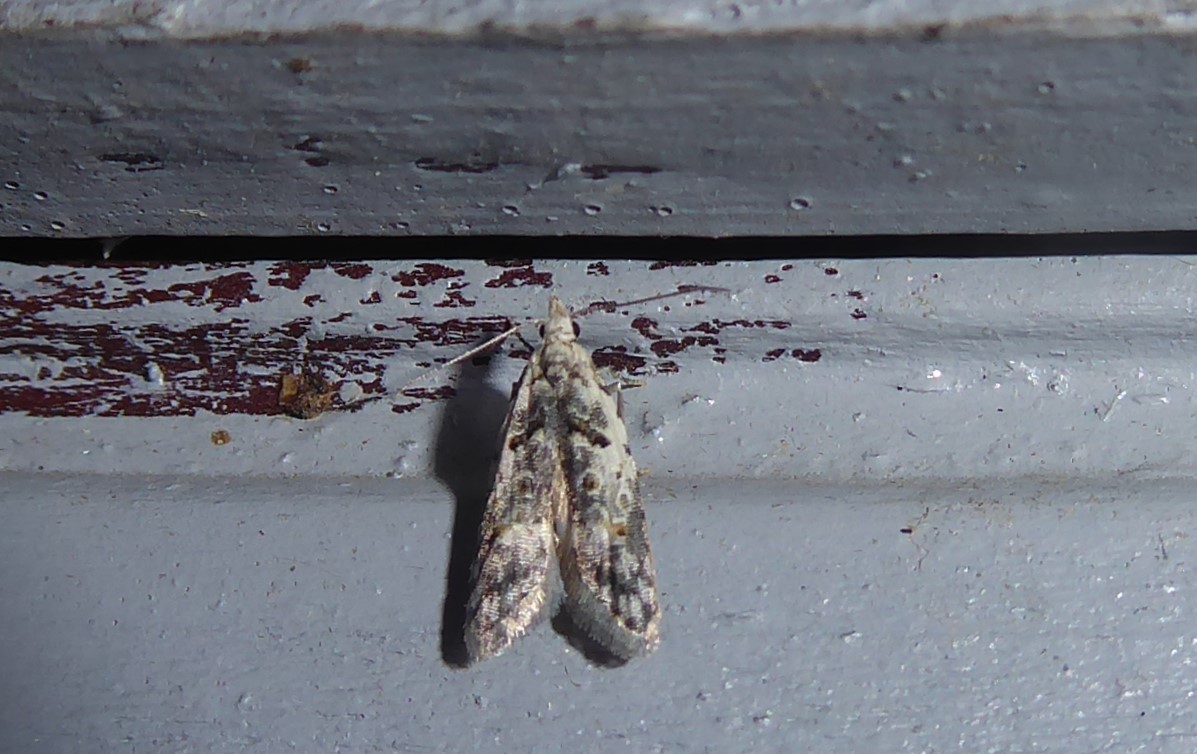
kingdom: Animalia
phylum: Arthropoda
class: Insecta
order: Lepidoptera
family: Carposinidae
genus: Carposina
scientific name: Carposina
